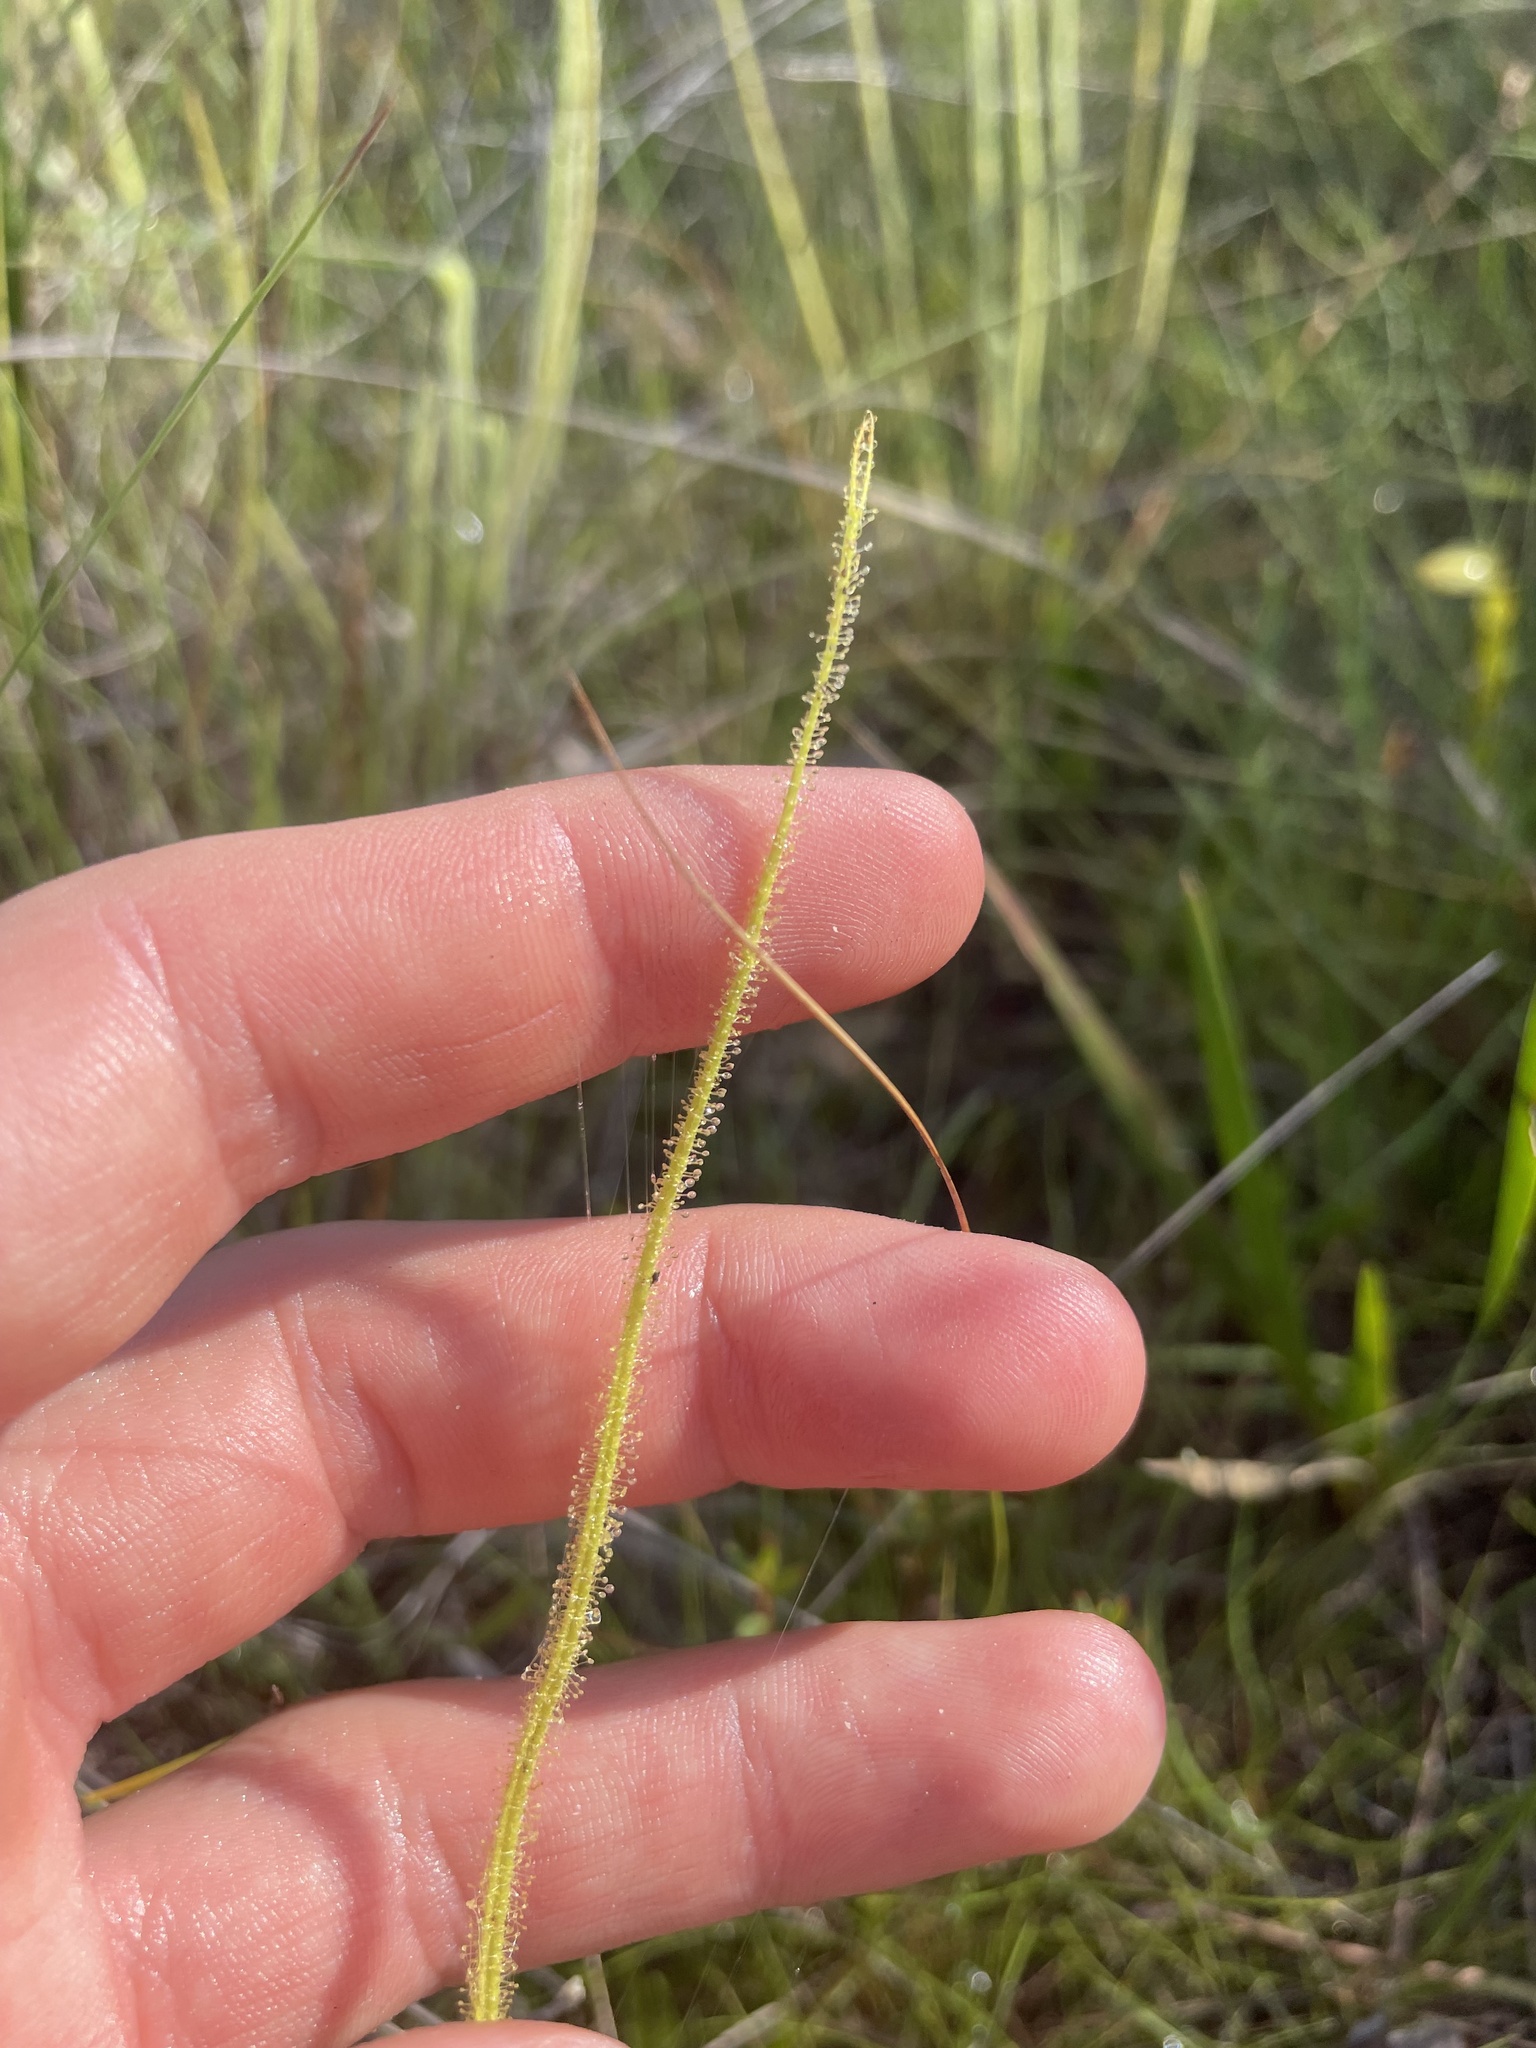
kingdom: Plantae
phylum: Tracheophyta
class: Magnoliopsida
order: Caryophyllales
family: Droseraceae
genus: Drosera
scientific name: Drosera filiformis
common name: Dew-thread
